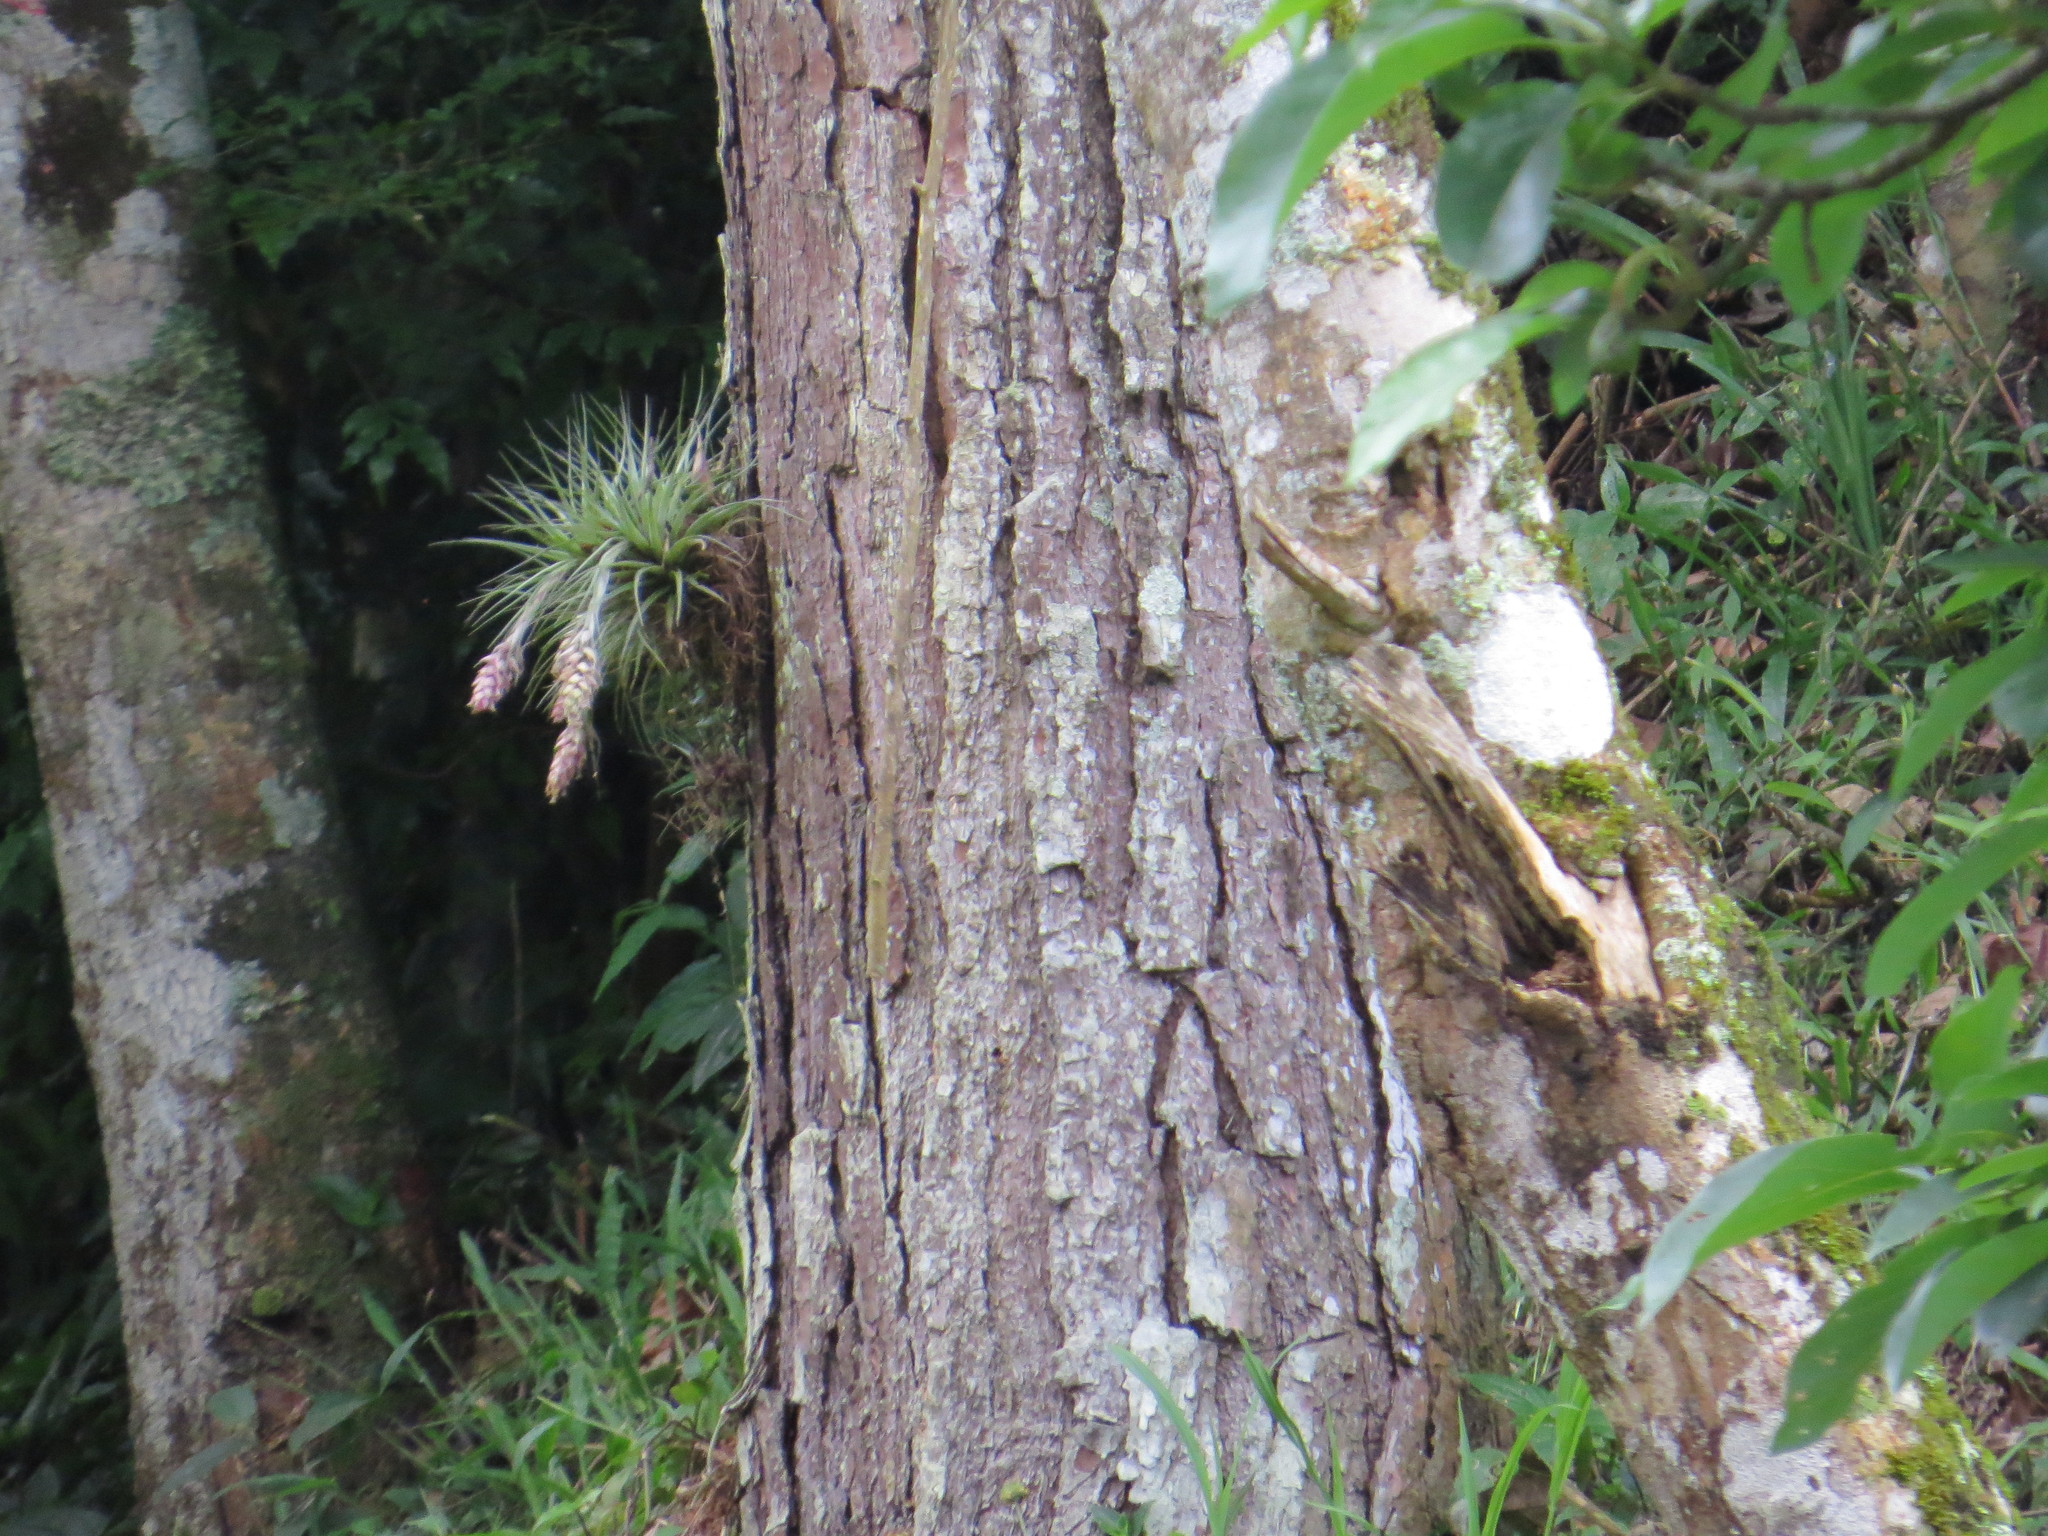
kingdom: Plantae
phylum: Tracheophyta
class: Liliopsida
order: Poales
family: Bromeliaceae
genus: Tillandsia
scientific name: Tillandsia stricta
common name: Airplant
